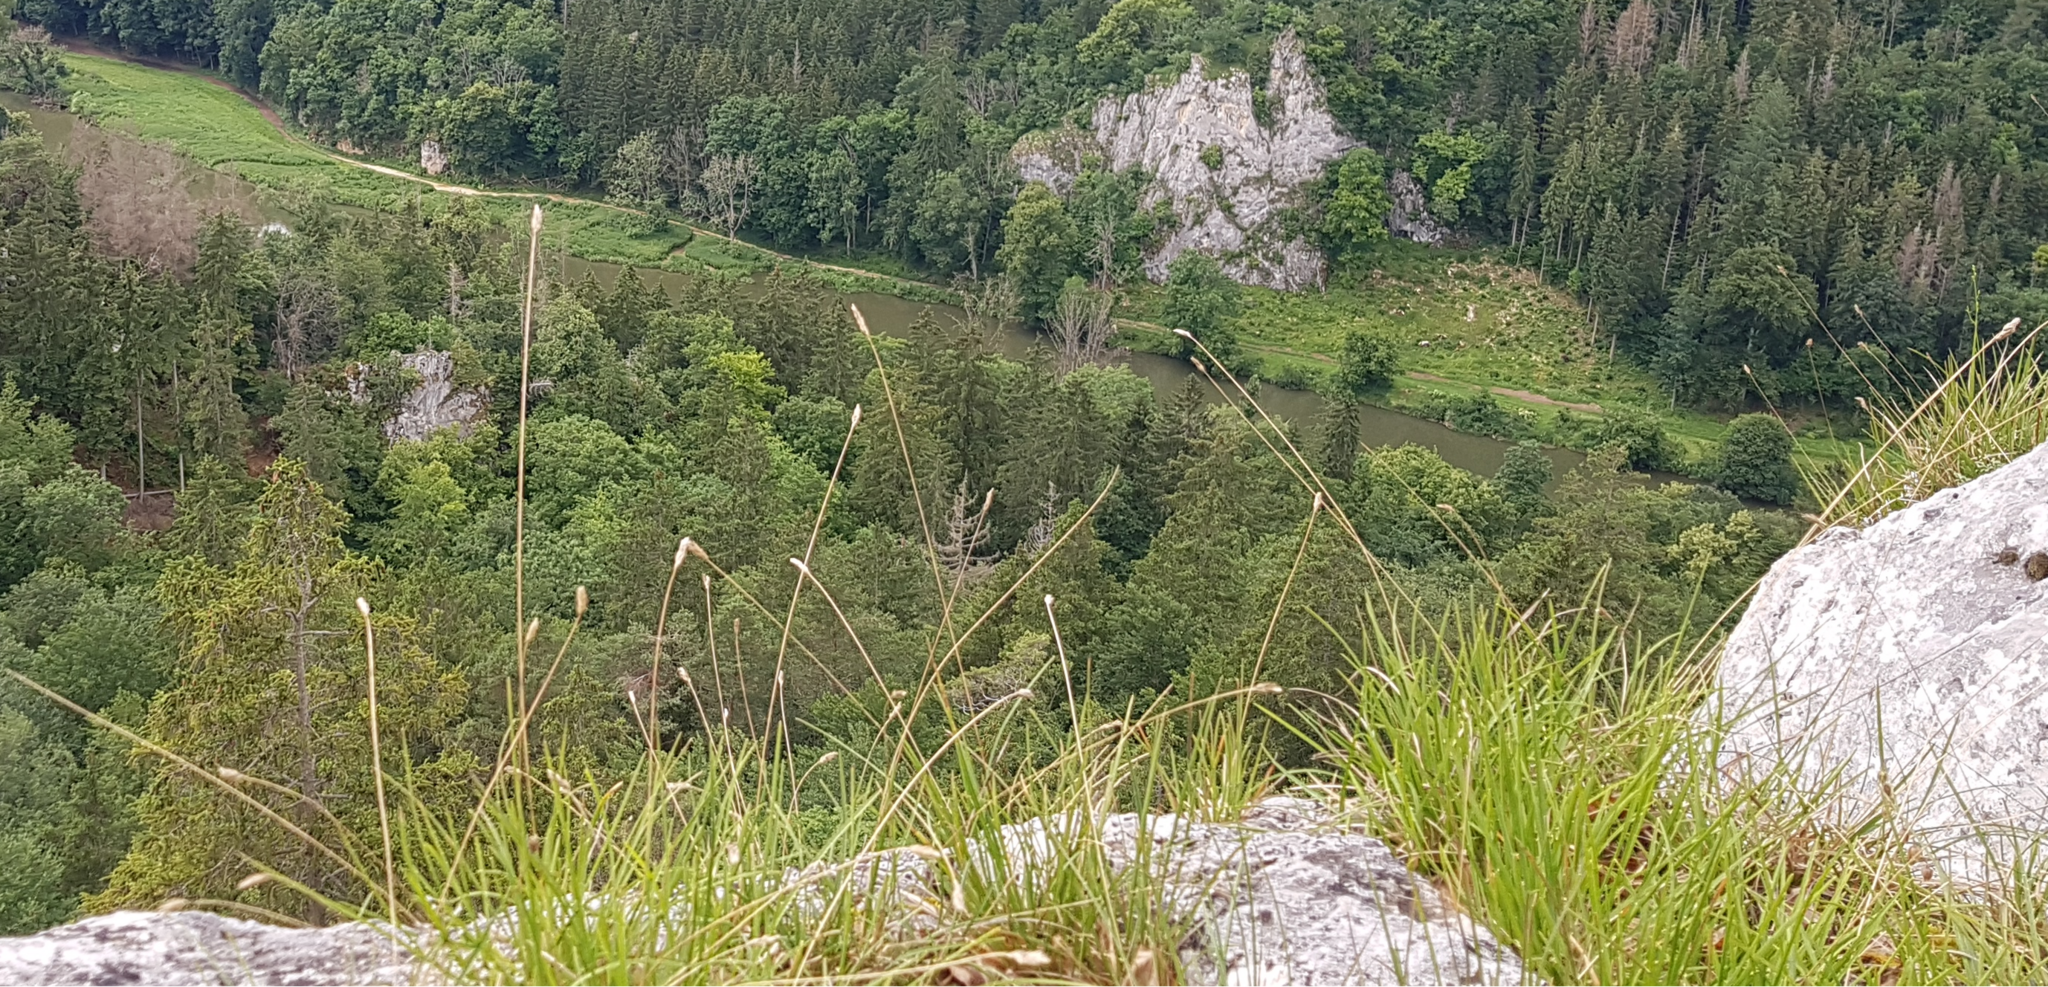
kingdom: Plantae
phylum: Tracheophyta
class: Liliopsida
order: Poales
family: Poaceae
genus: Sesleria
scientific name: Sesleria caerulea
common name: Blue moor-grass
